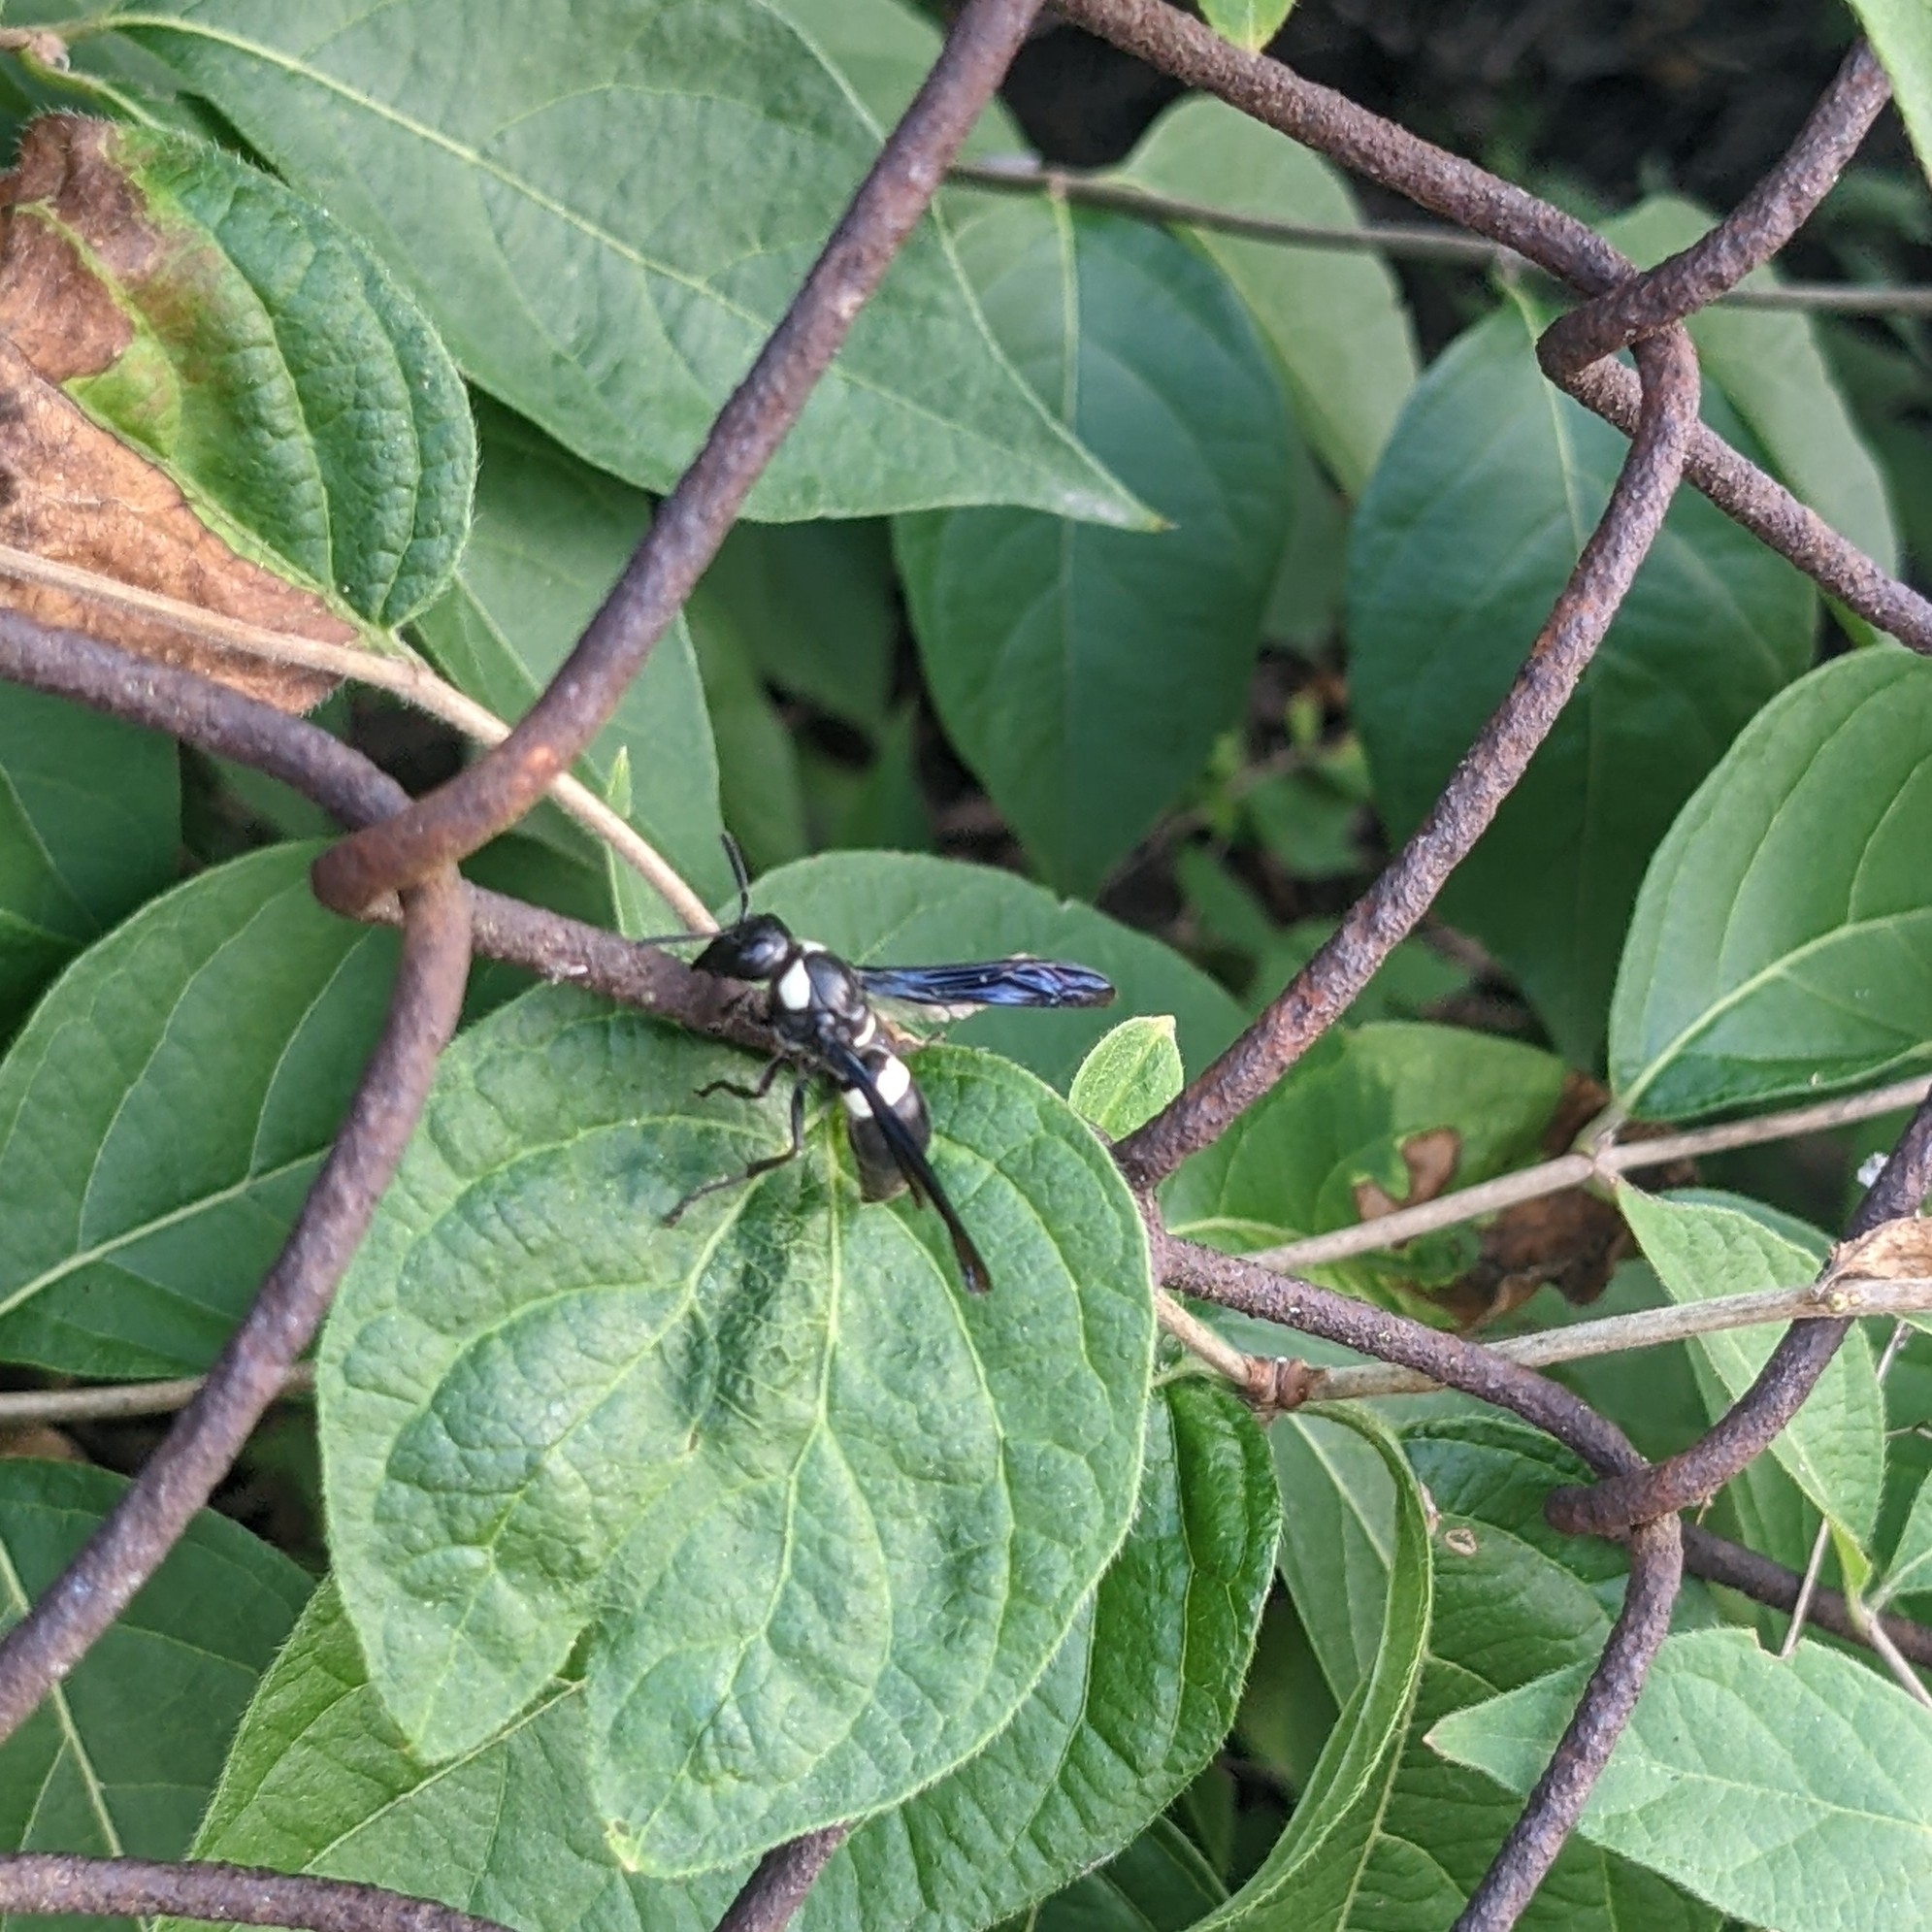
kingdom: Animalia
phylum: Arthropoda
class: Insecta
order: Hymenoptera
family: Eumenidae
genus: Monobia
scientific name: Monobia quadridens
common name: Four-toothed mason wasp
